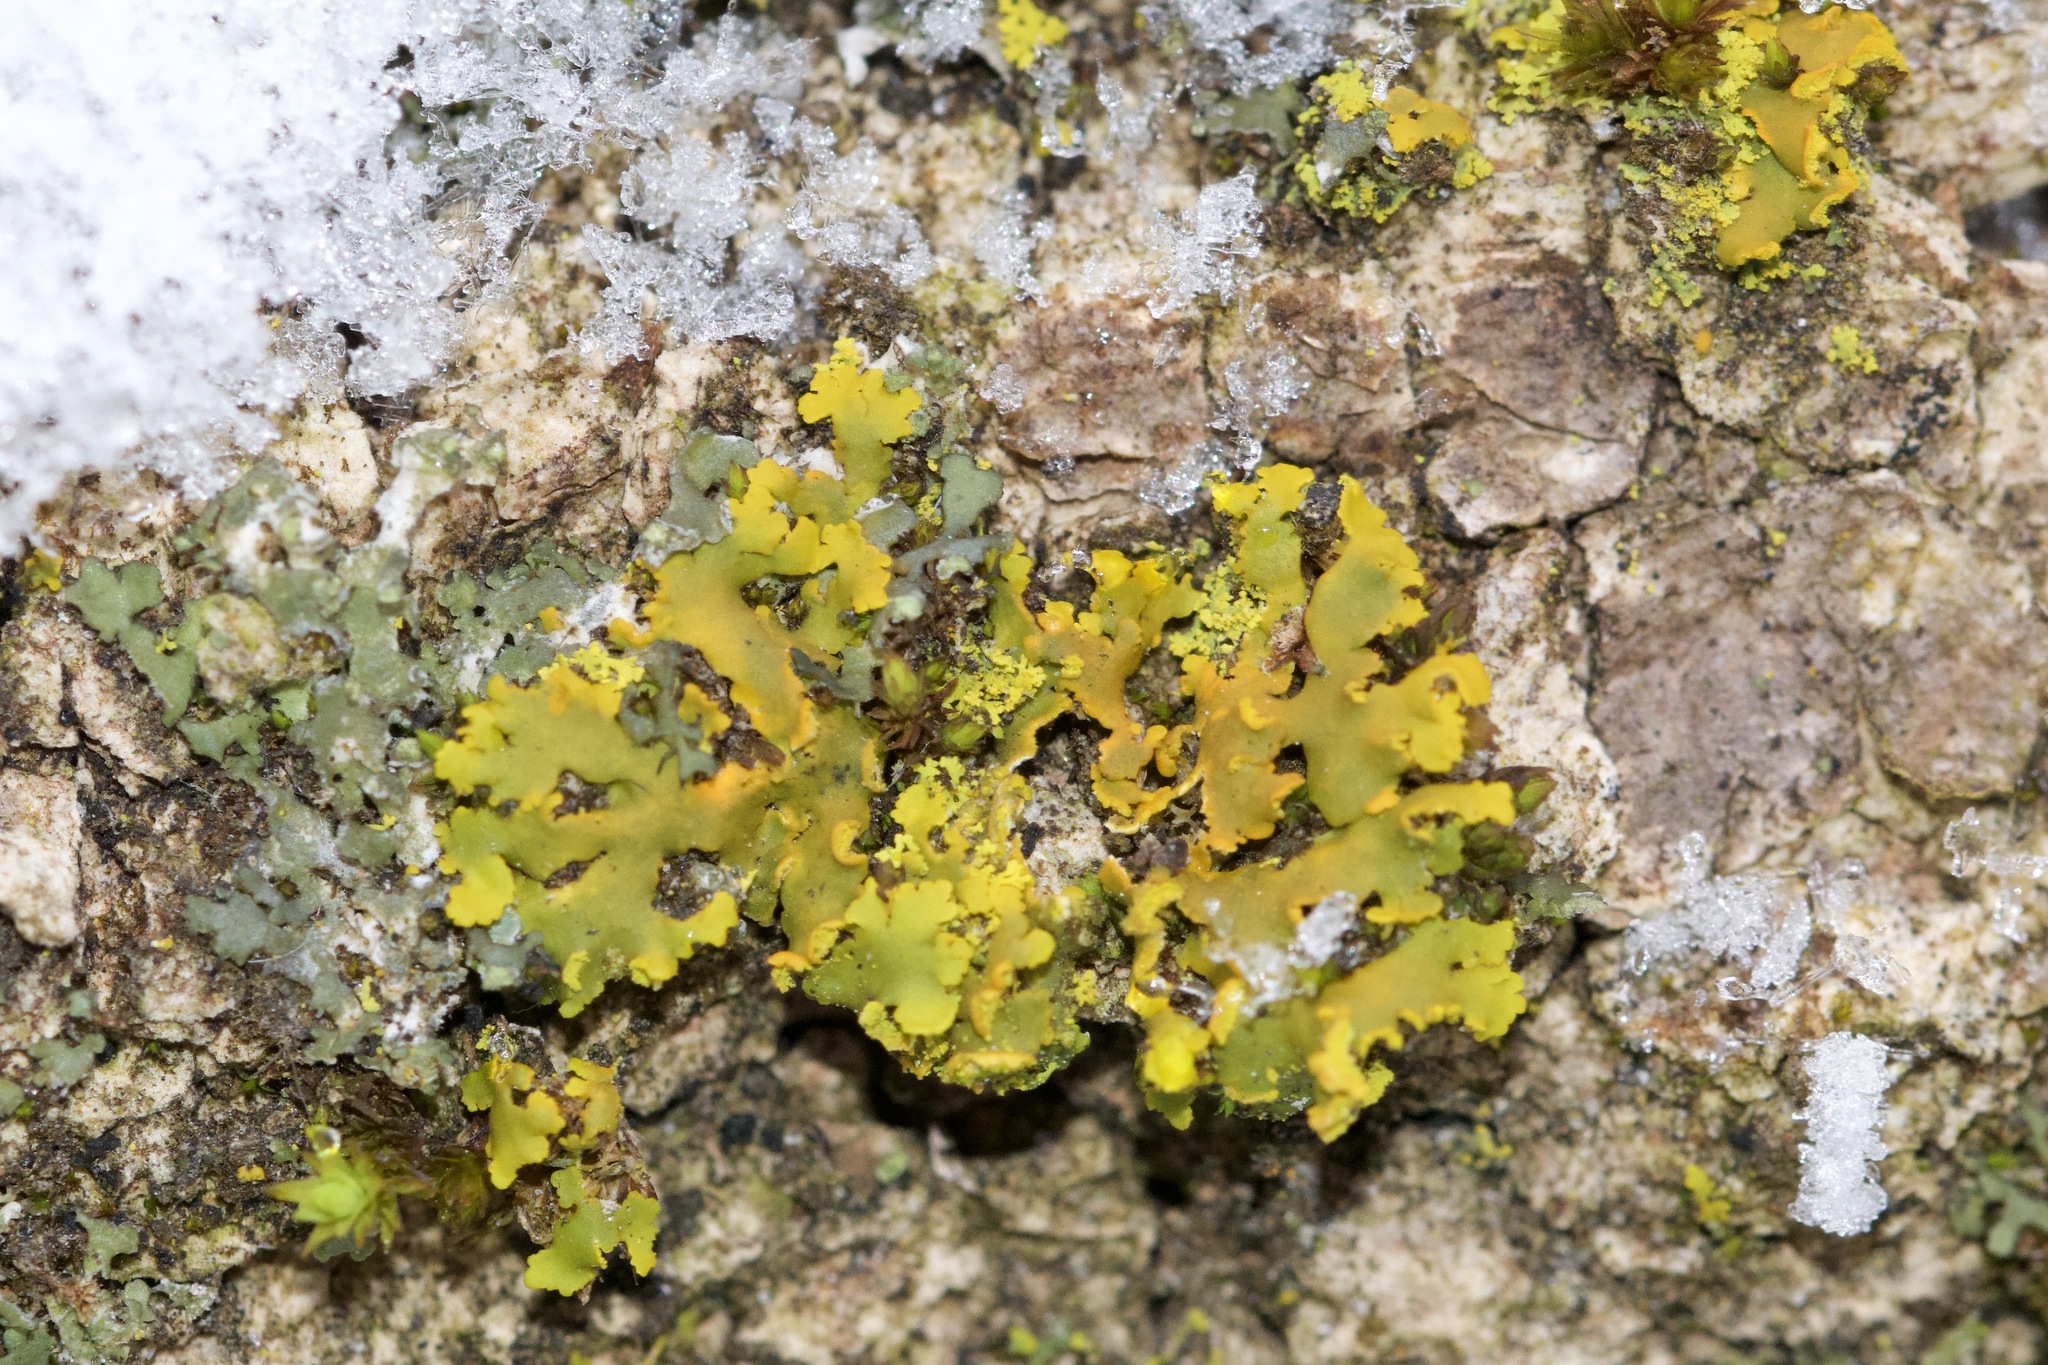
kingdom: Fungi
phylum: Ascomycota
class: Lecanoromycetes
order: Teloschistales
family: Teloschistaceae
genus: Oxneria
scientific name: Oxneria fallax
